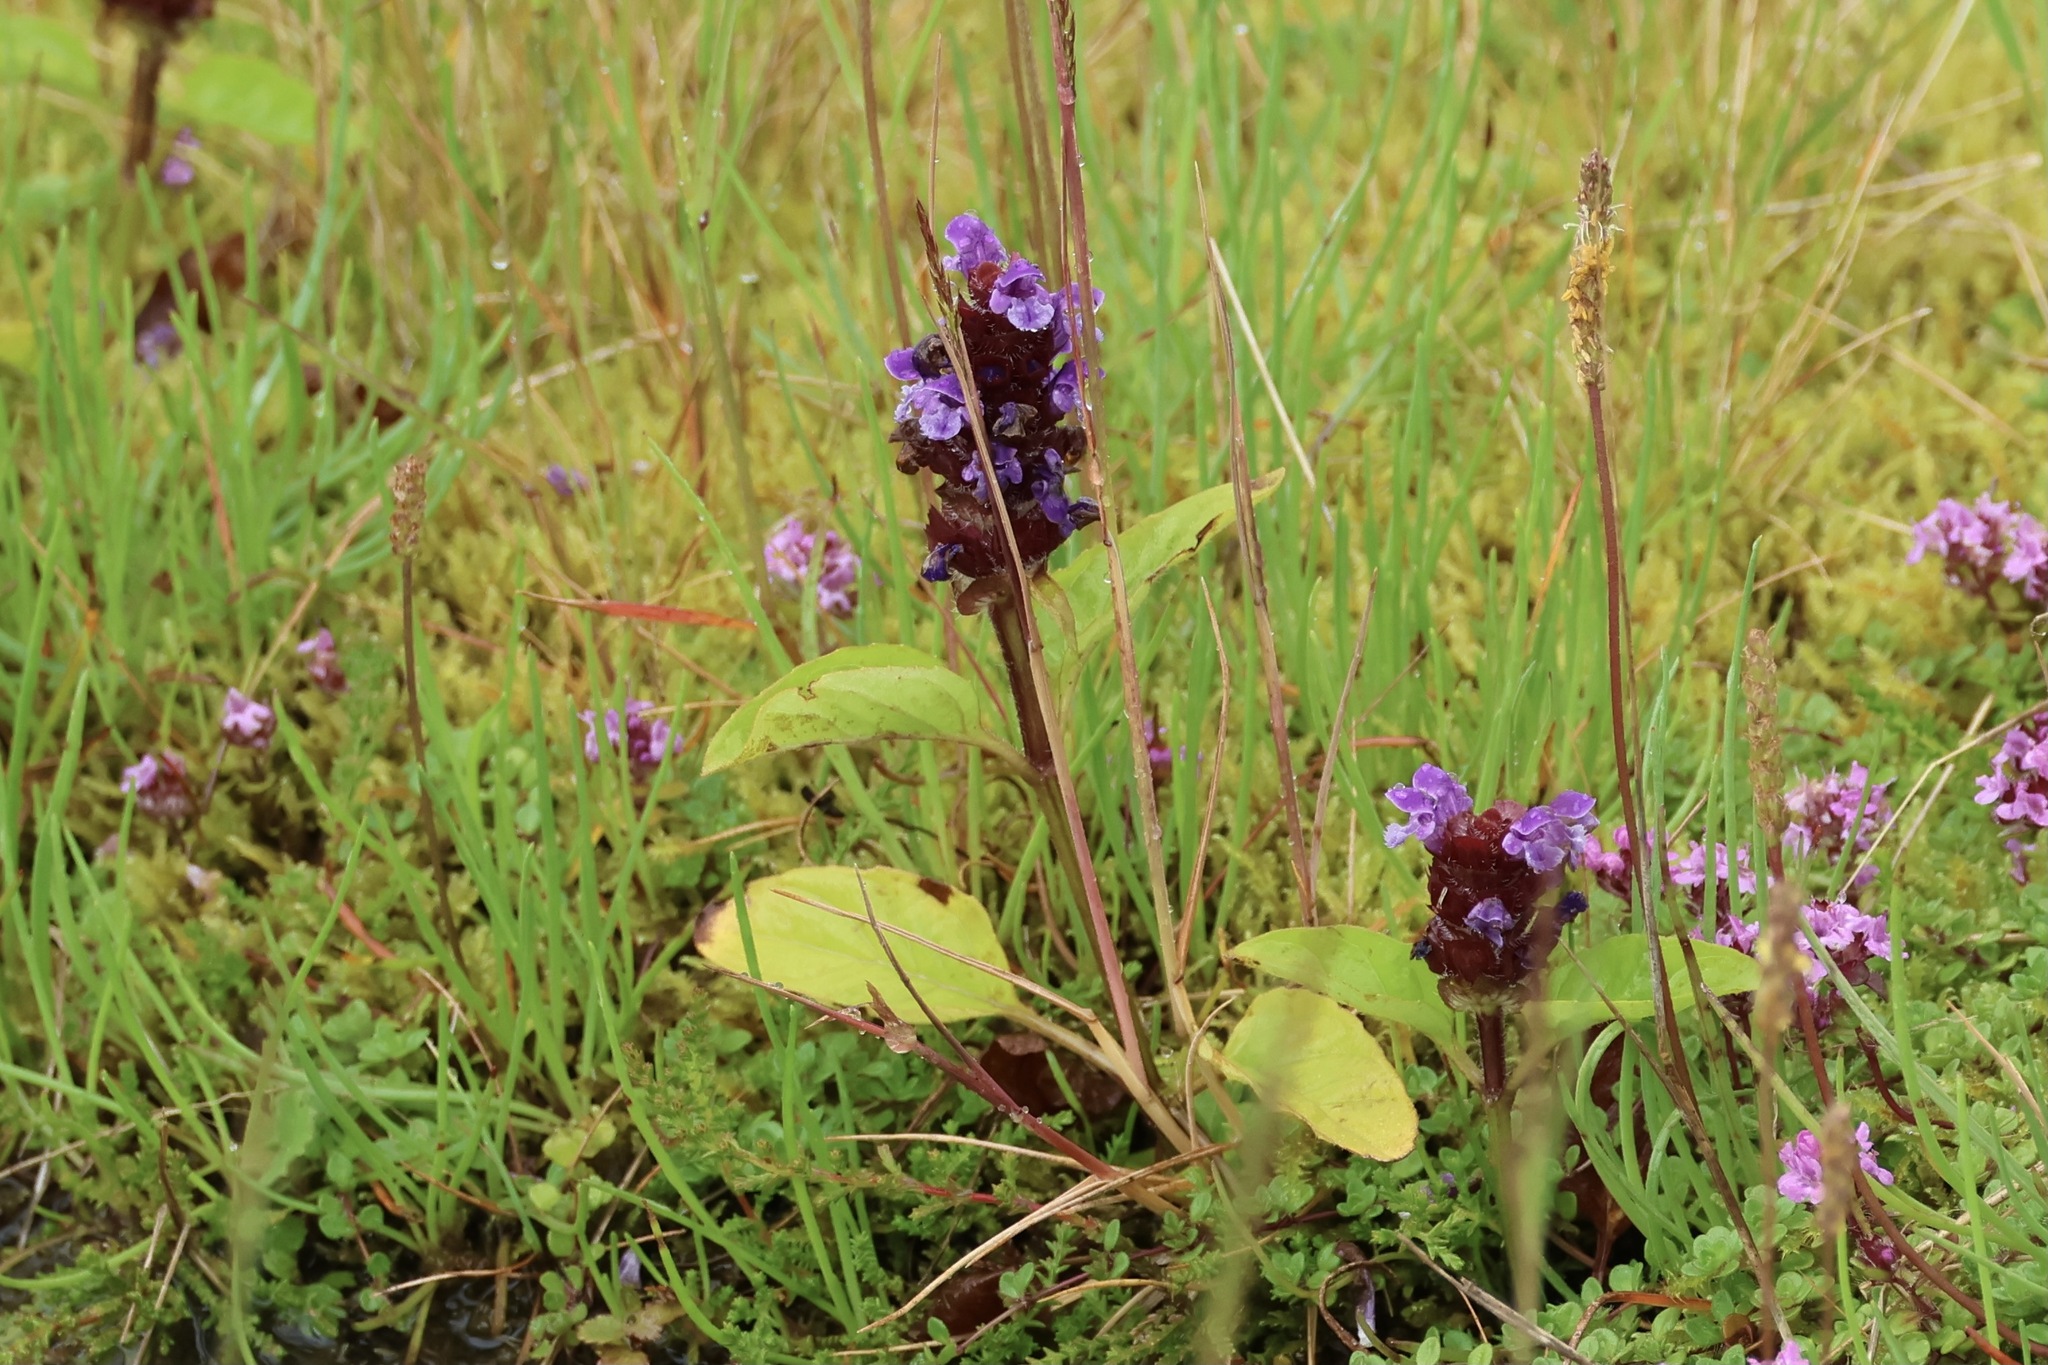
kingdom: Plantae
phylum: Tracheophyta
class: Magnoliopsida
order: Lamiales
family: Lamiaceae
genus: Prunella
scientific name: Prunella vulgaris
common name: Heal-all
